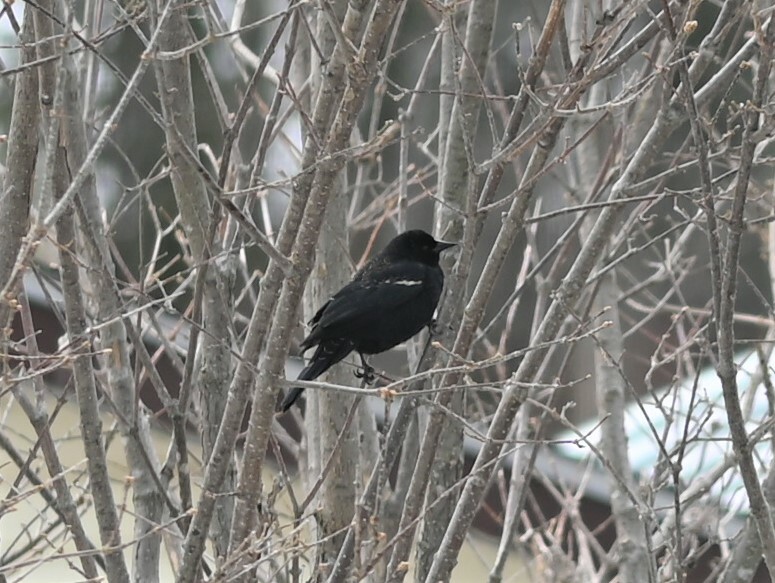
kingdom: Animalia
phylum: Chordata
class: Aves
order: Passeriformes
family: Icteridae
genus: Agelaius
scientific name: Agelaius phoeniceus
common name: Red-winged blackbird
